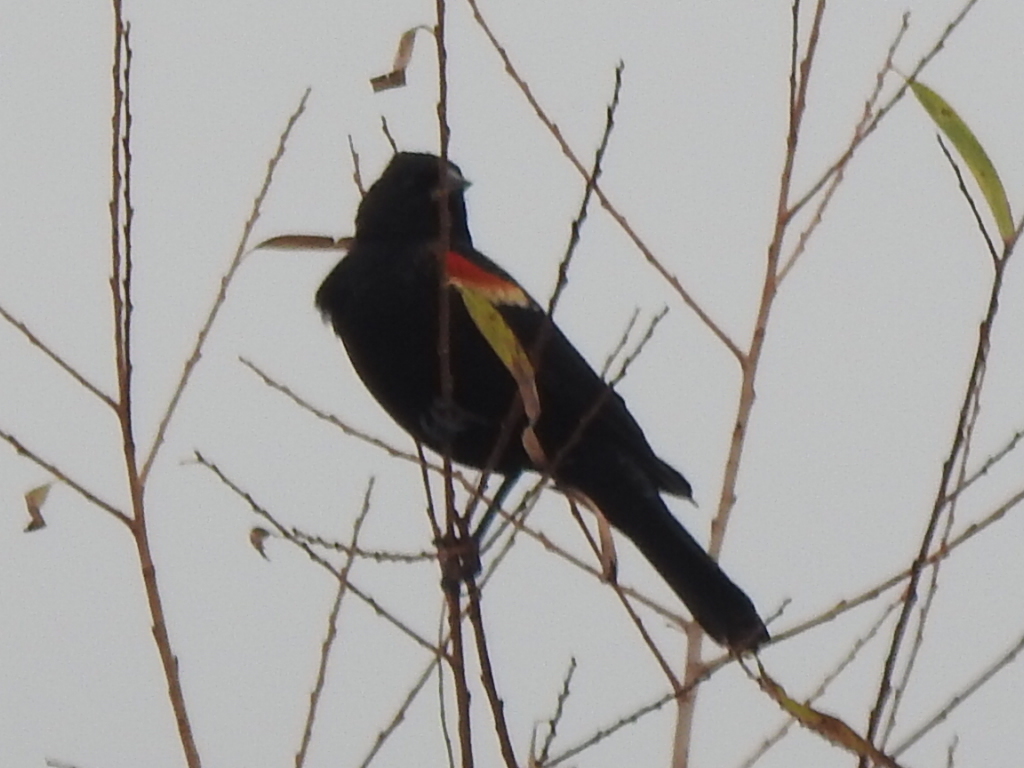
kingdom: Animalia
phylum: Chordata
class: Aves
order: Passeriformes
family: Icteridae
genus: Agelaius
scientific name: Agelaius phoeniceus
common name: Red-winged blackbird
